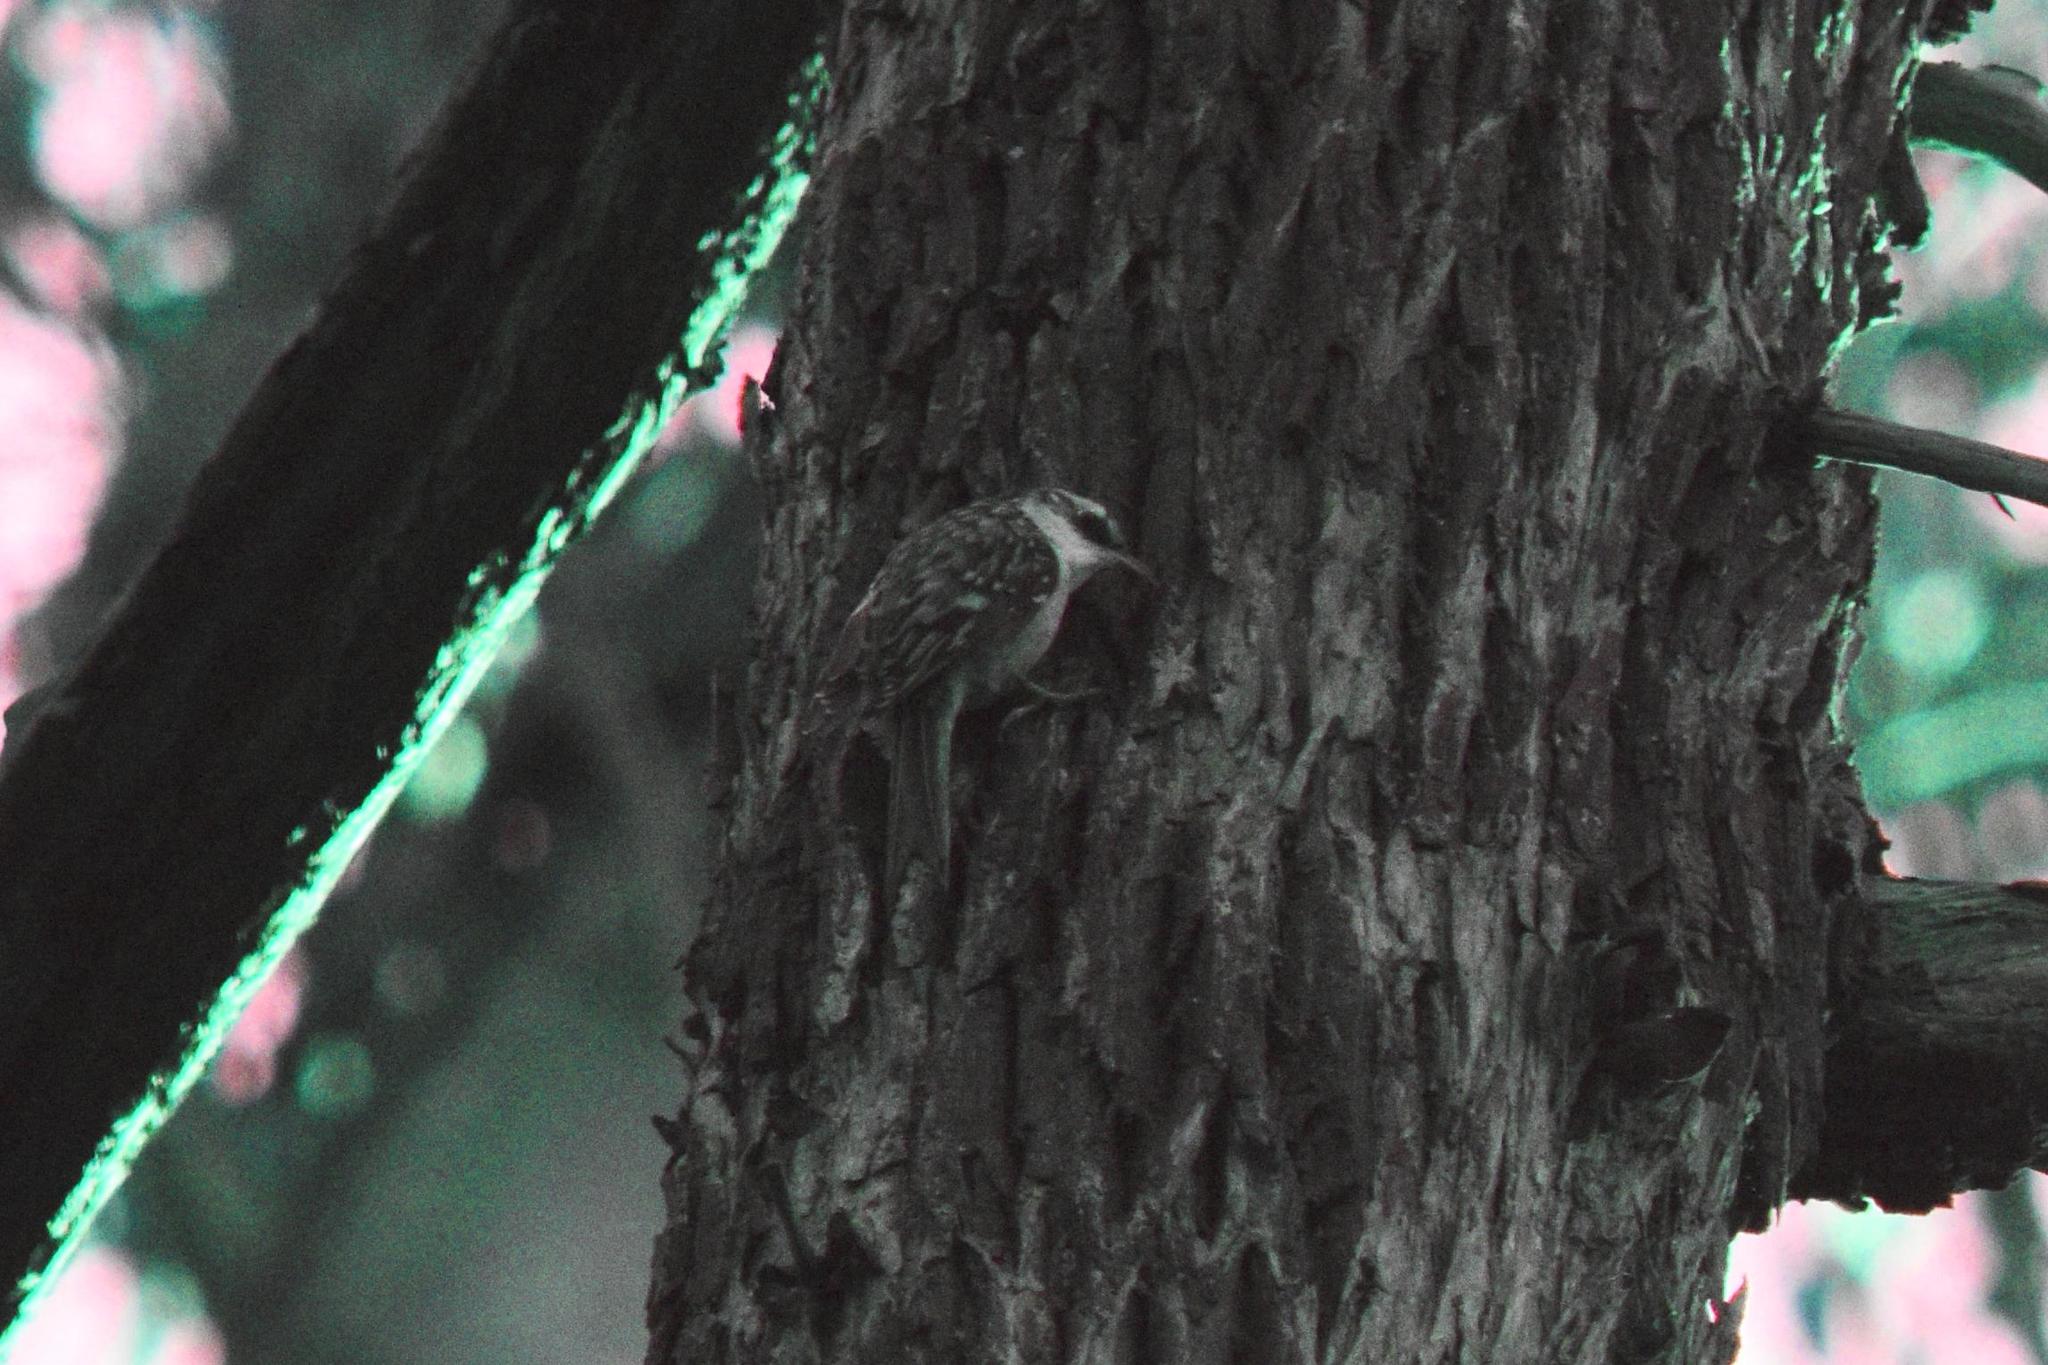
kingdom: Animalia
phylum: Chordata
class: Aves
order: Passeriformes
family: Certhiidae
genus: Certhia
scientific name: Certhia americana
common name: Brown creeper
